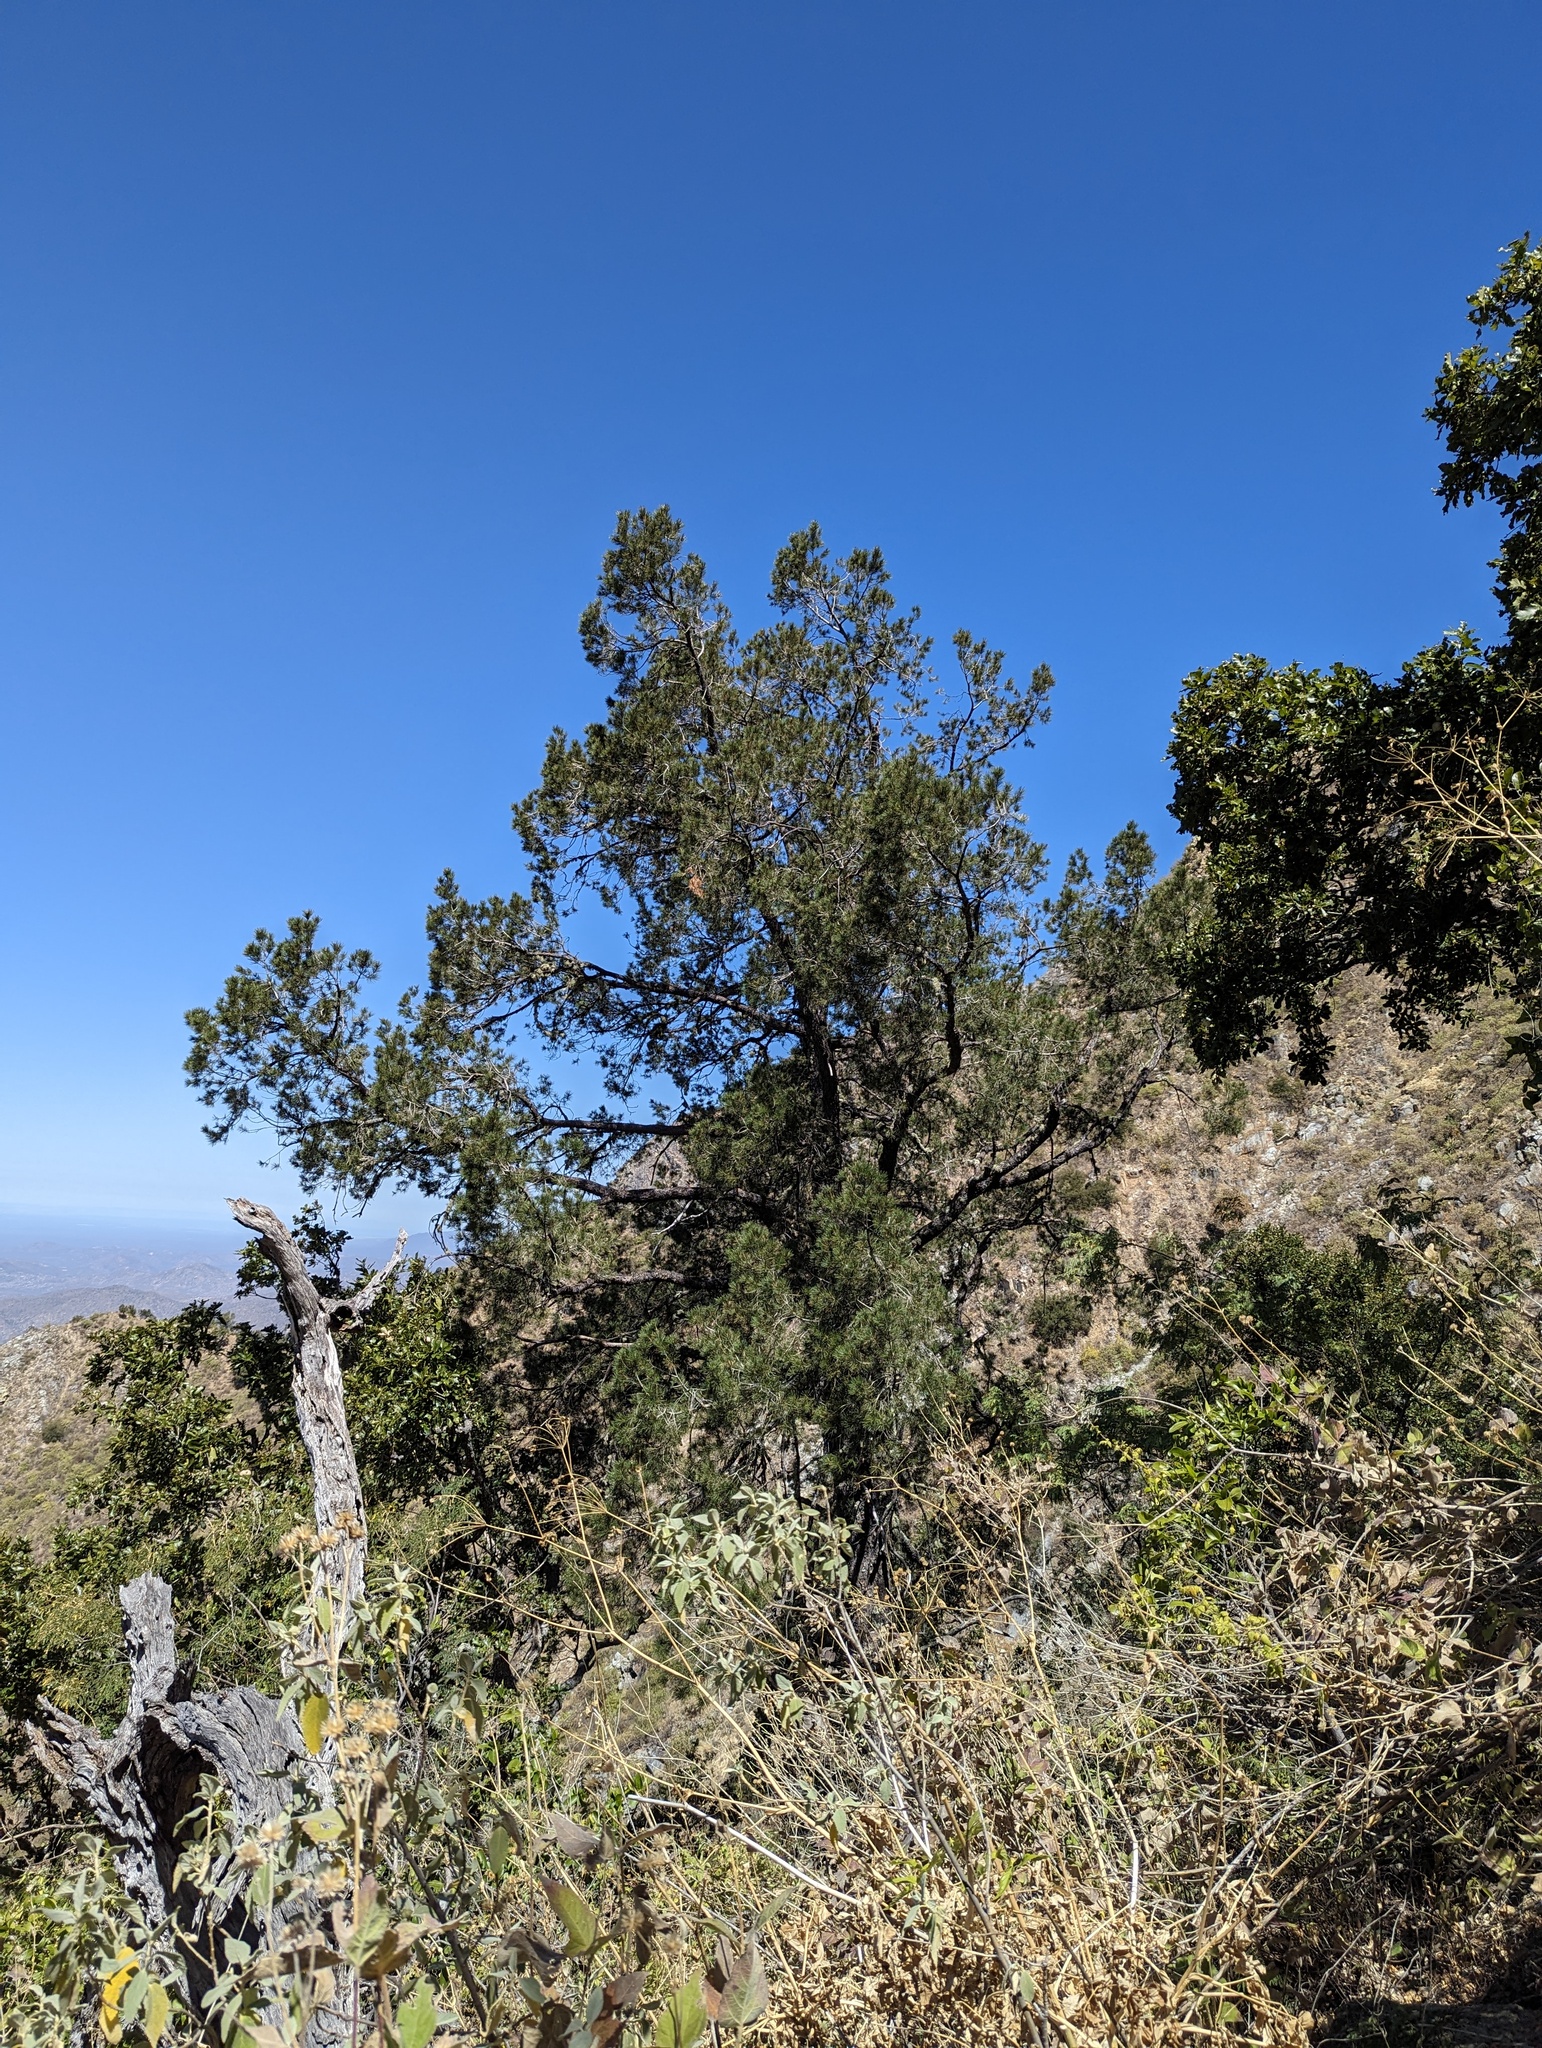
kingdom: Plantae
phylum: Tracheophyta
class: Pinopsida
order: Pinales
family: Pinaceae
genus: Pinus
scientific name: Pinus cembroides
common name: Mexican nut pine
